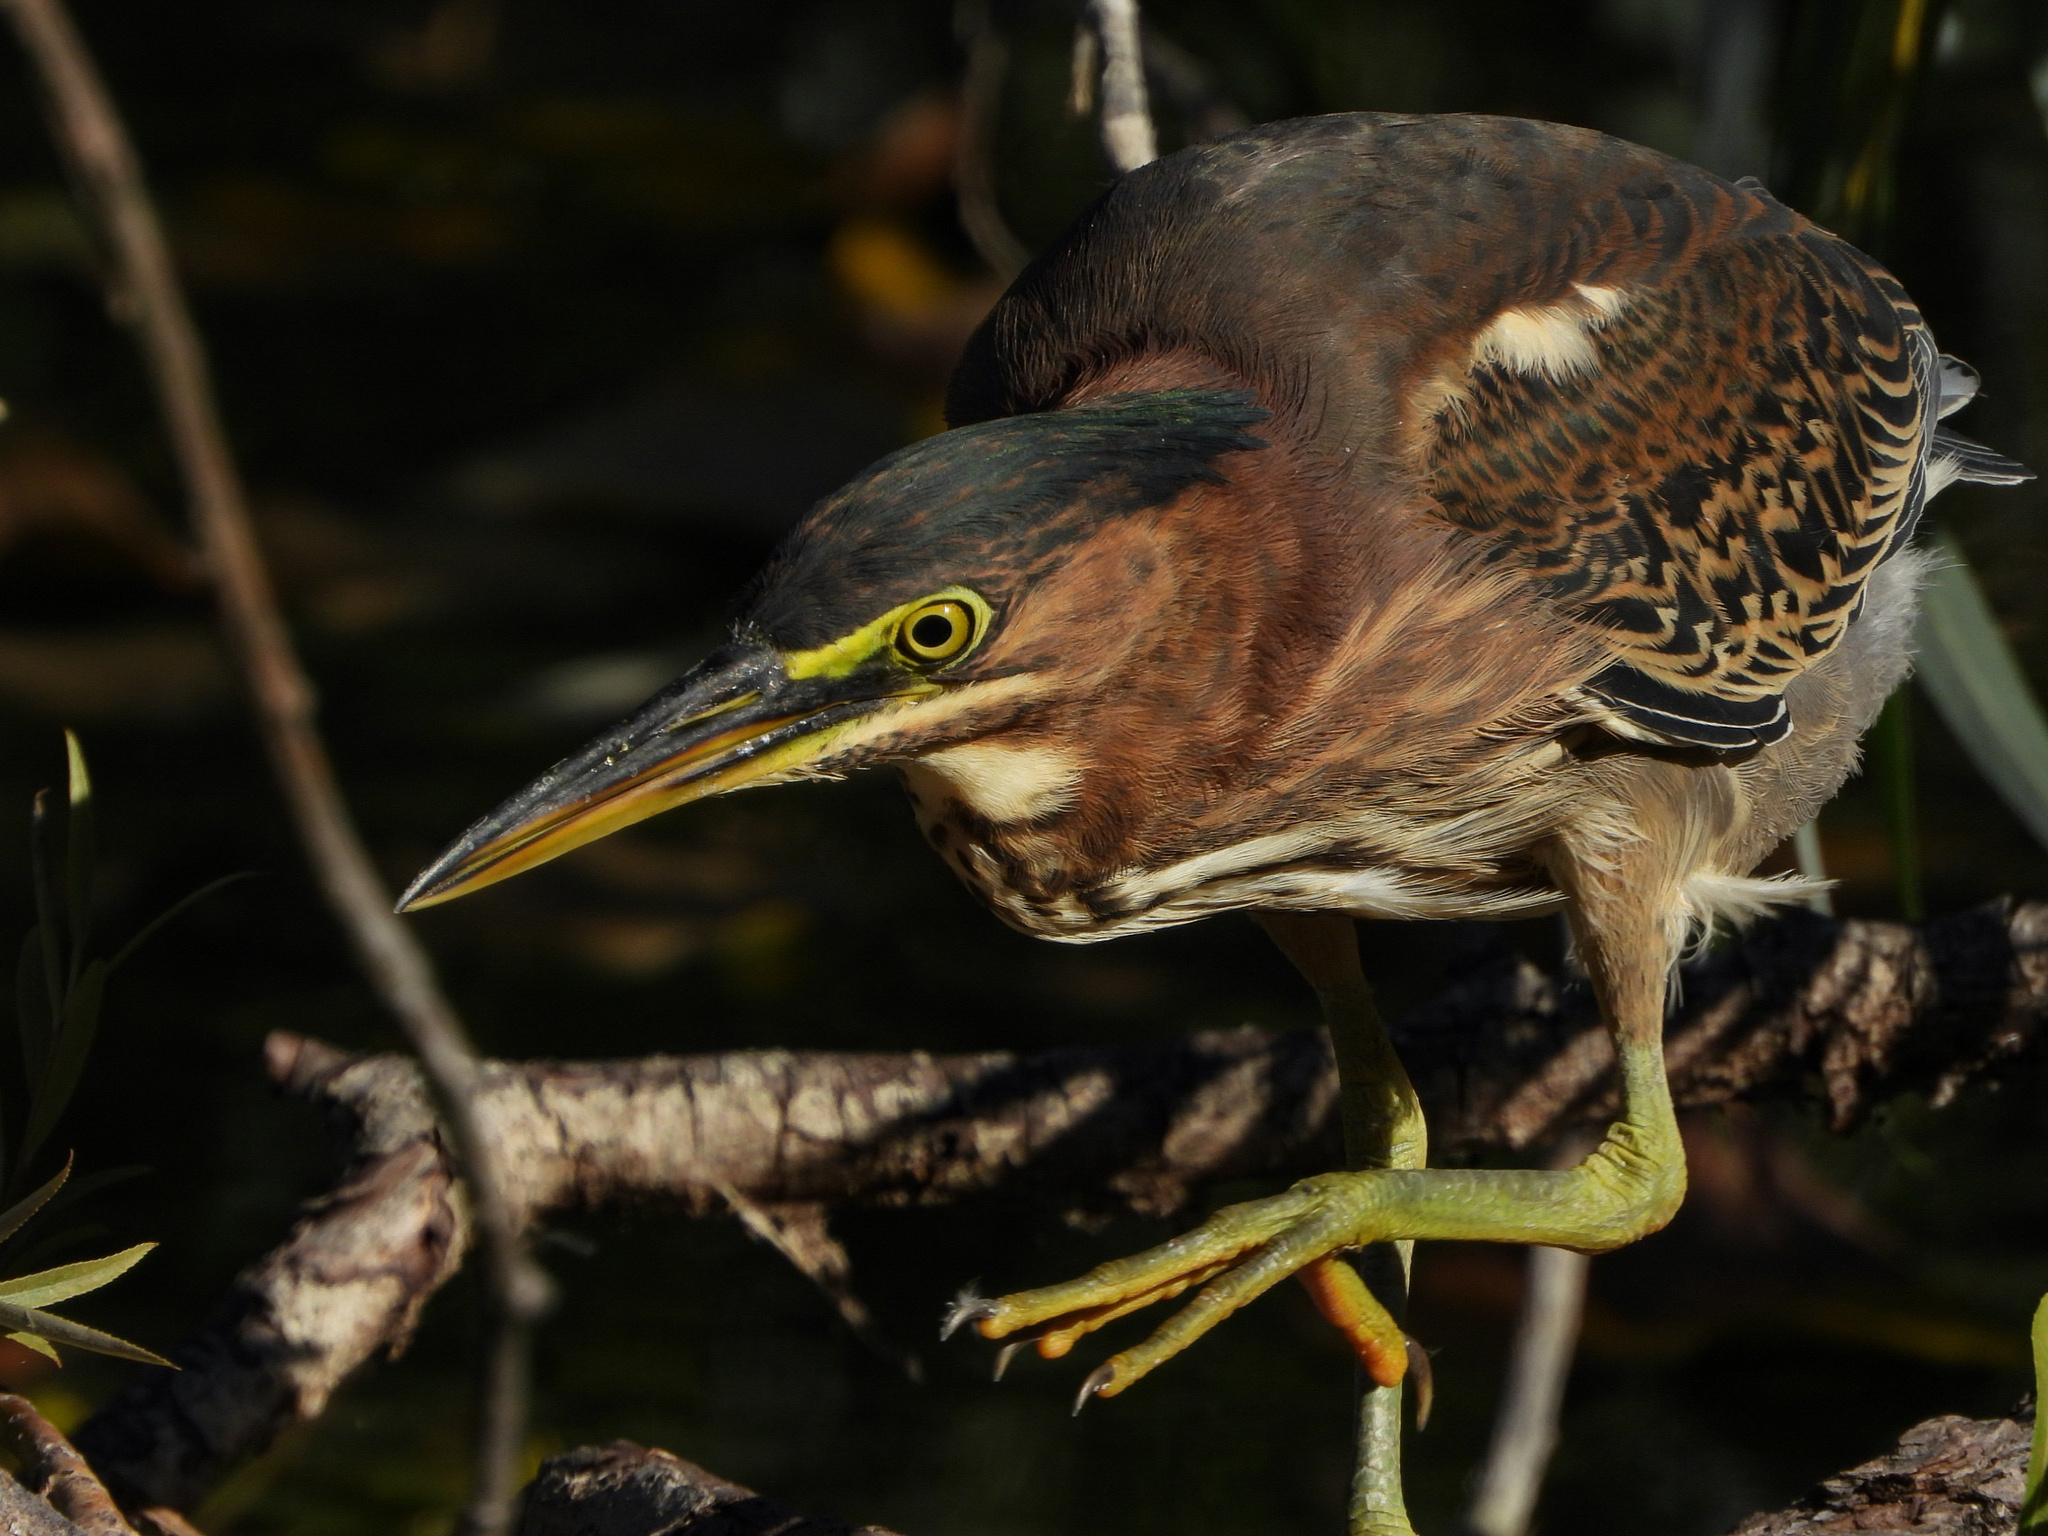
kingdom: Animalia
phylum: Chordata
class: Aves
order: Pelecaniformes
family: Ardeidae
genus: Butorides
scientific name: Butorides virescens
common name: Green heron
